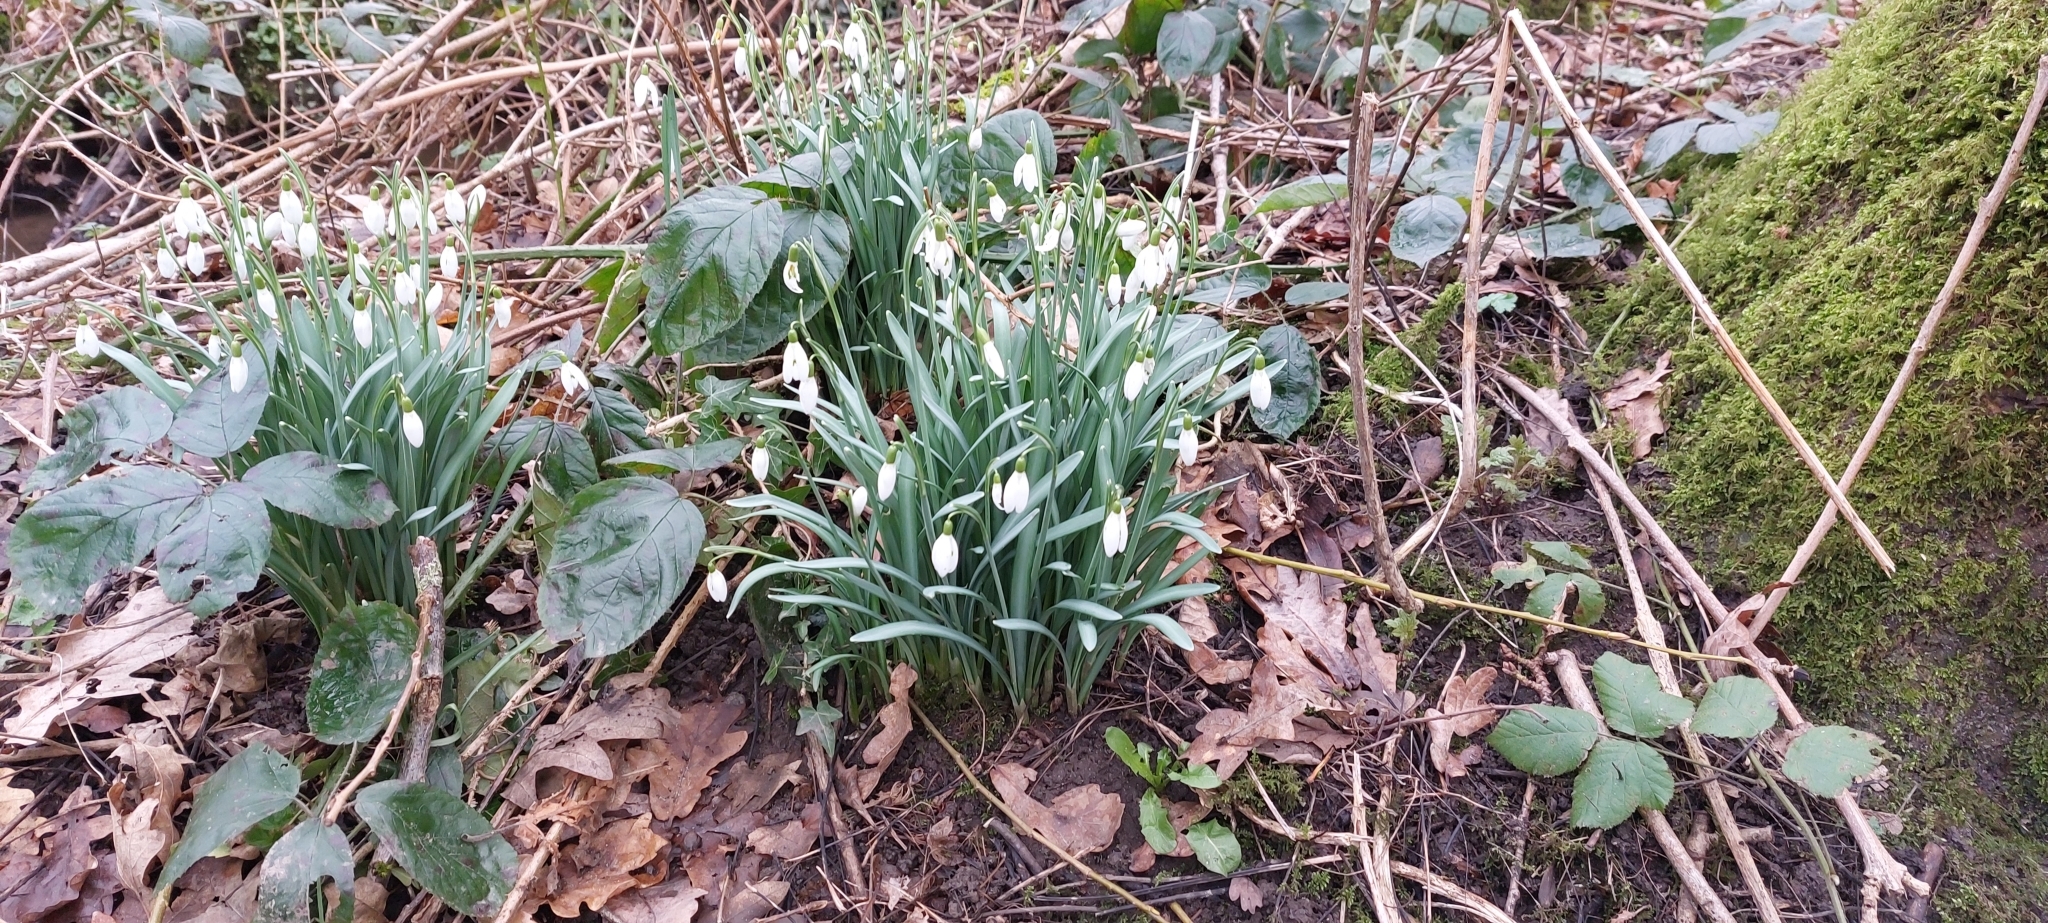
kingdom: Plantae
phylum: Tracheophyta
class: Liliopsida
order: Asparagales
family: Amaryllidaceae
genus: Galanthus
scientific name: Galanthus nivalis
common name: Snowdrop
